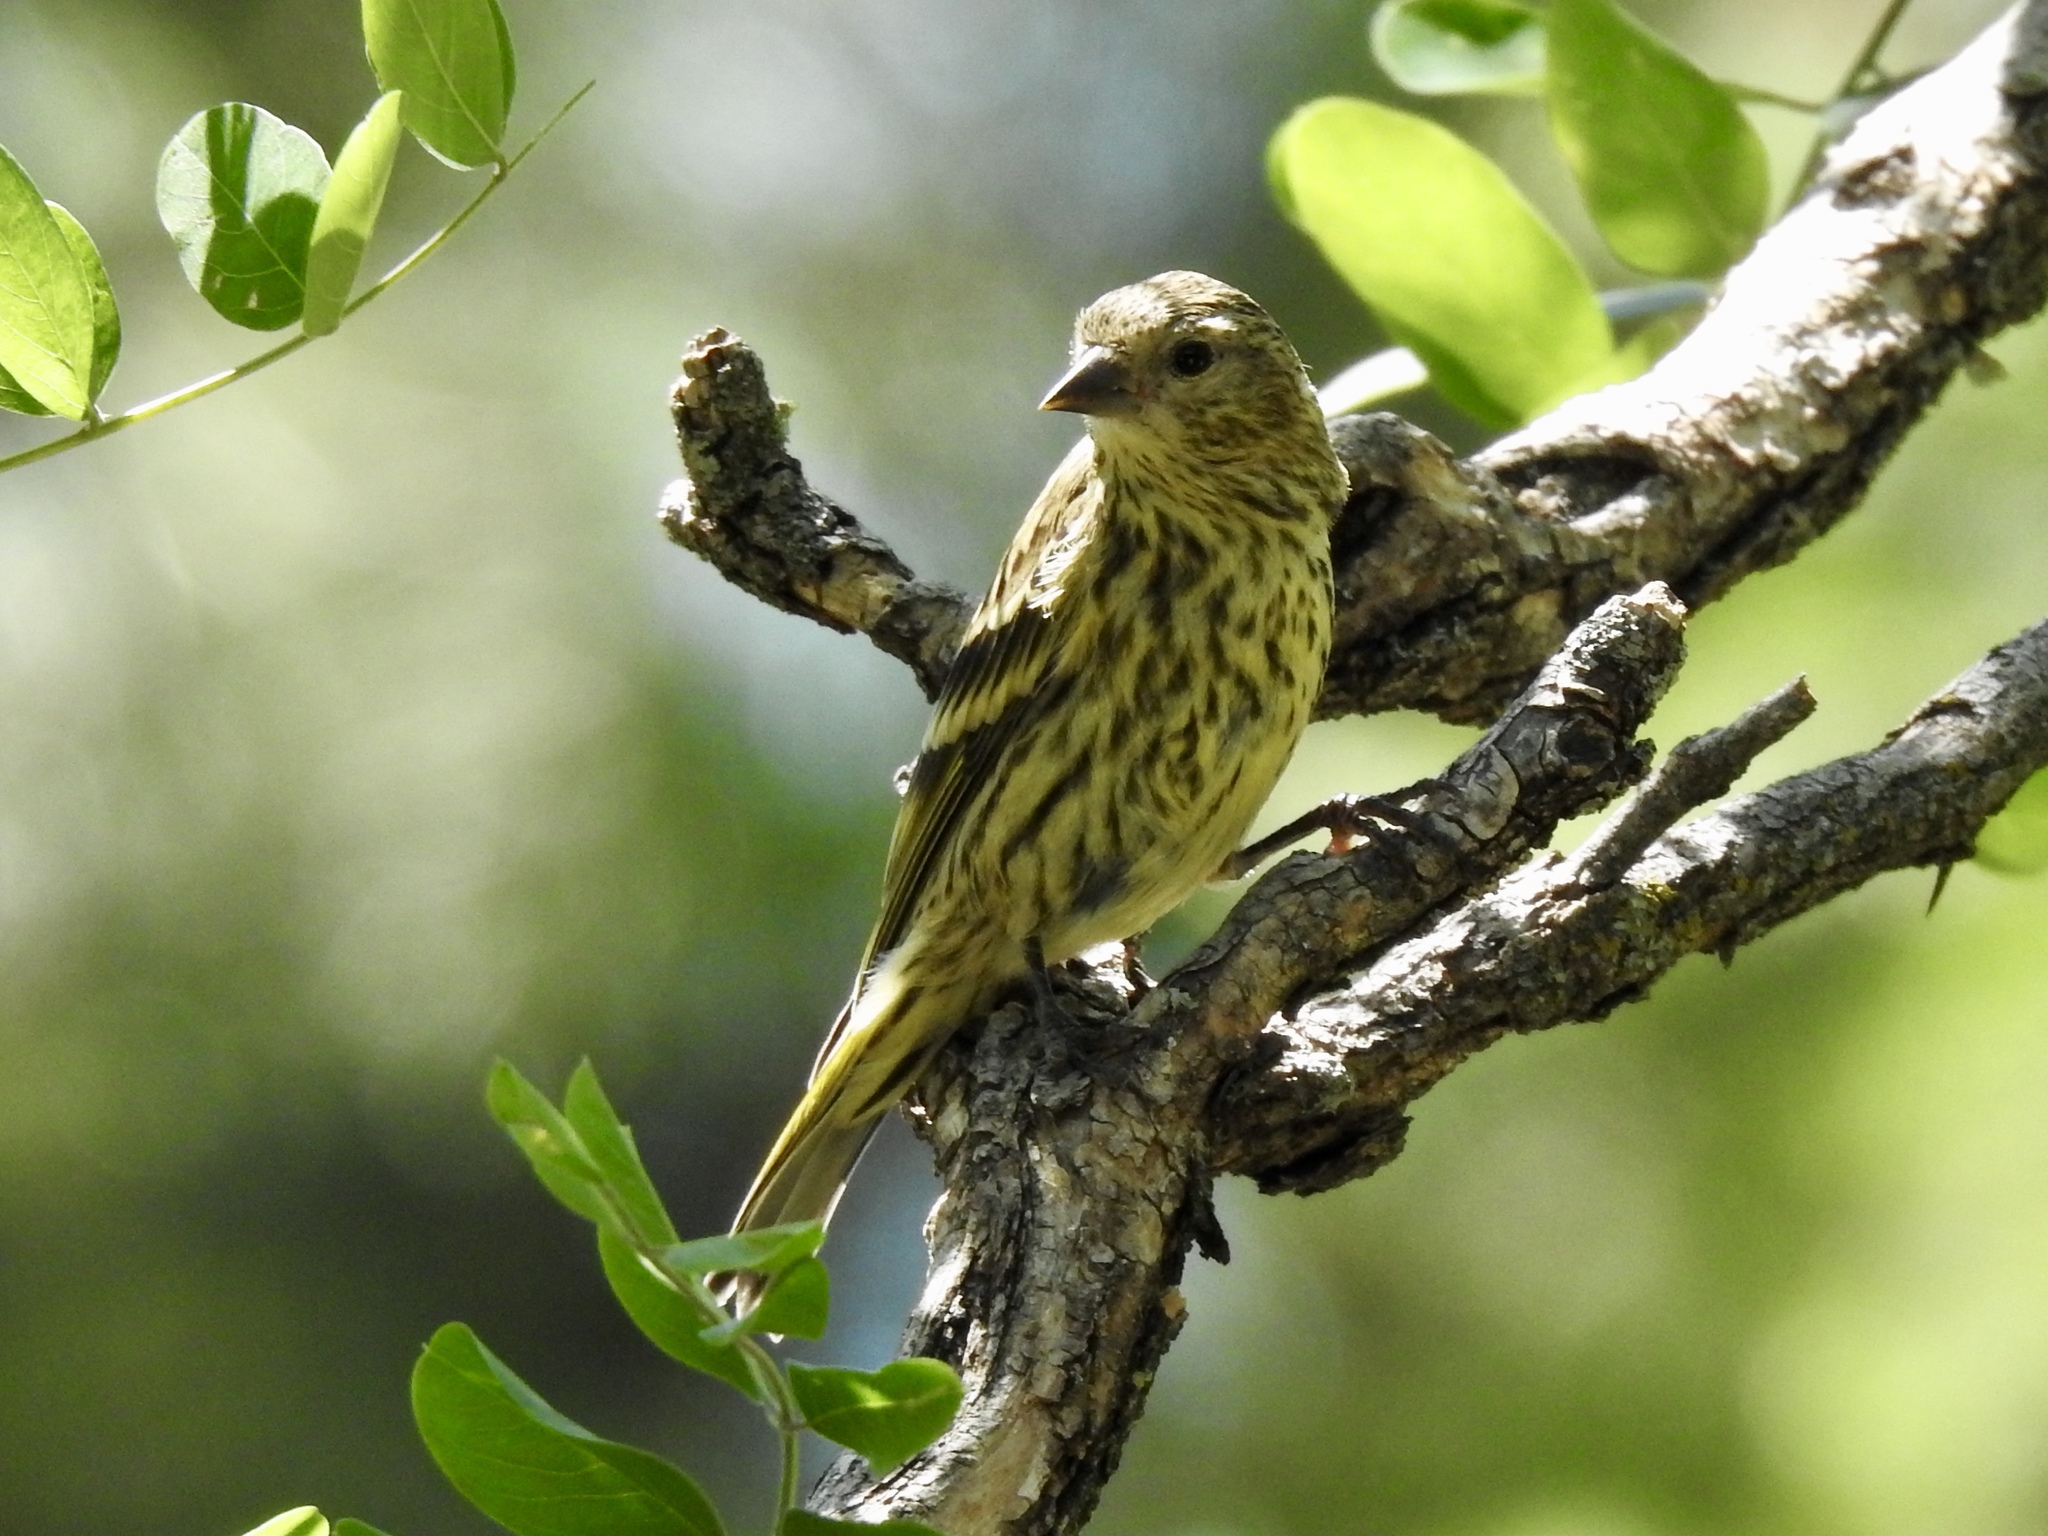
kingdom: Animalia
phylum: Chordata
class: Aves
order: Passeriformes
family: Fringillidae
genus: Spinus
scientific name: Spinus pinus
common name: Pine siskin
